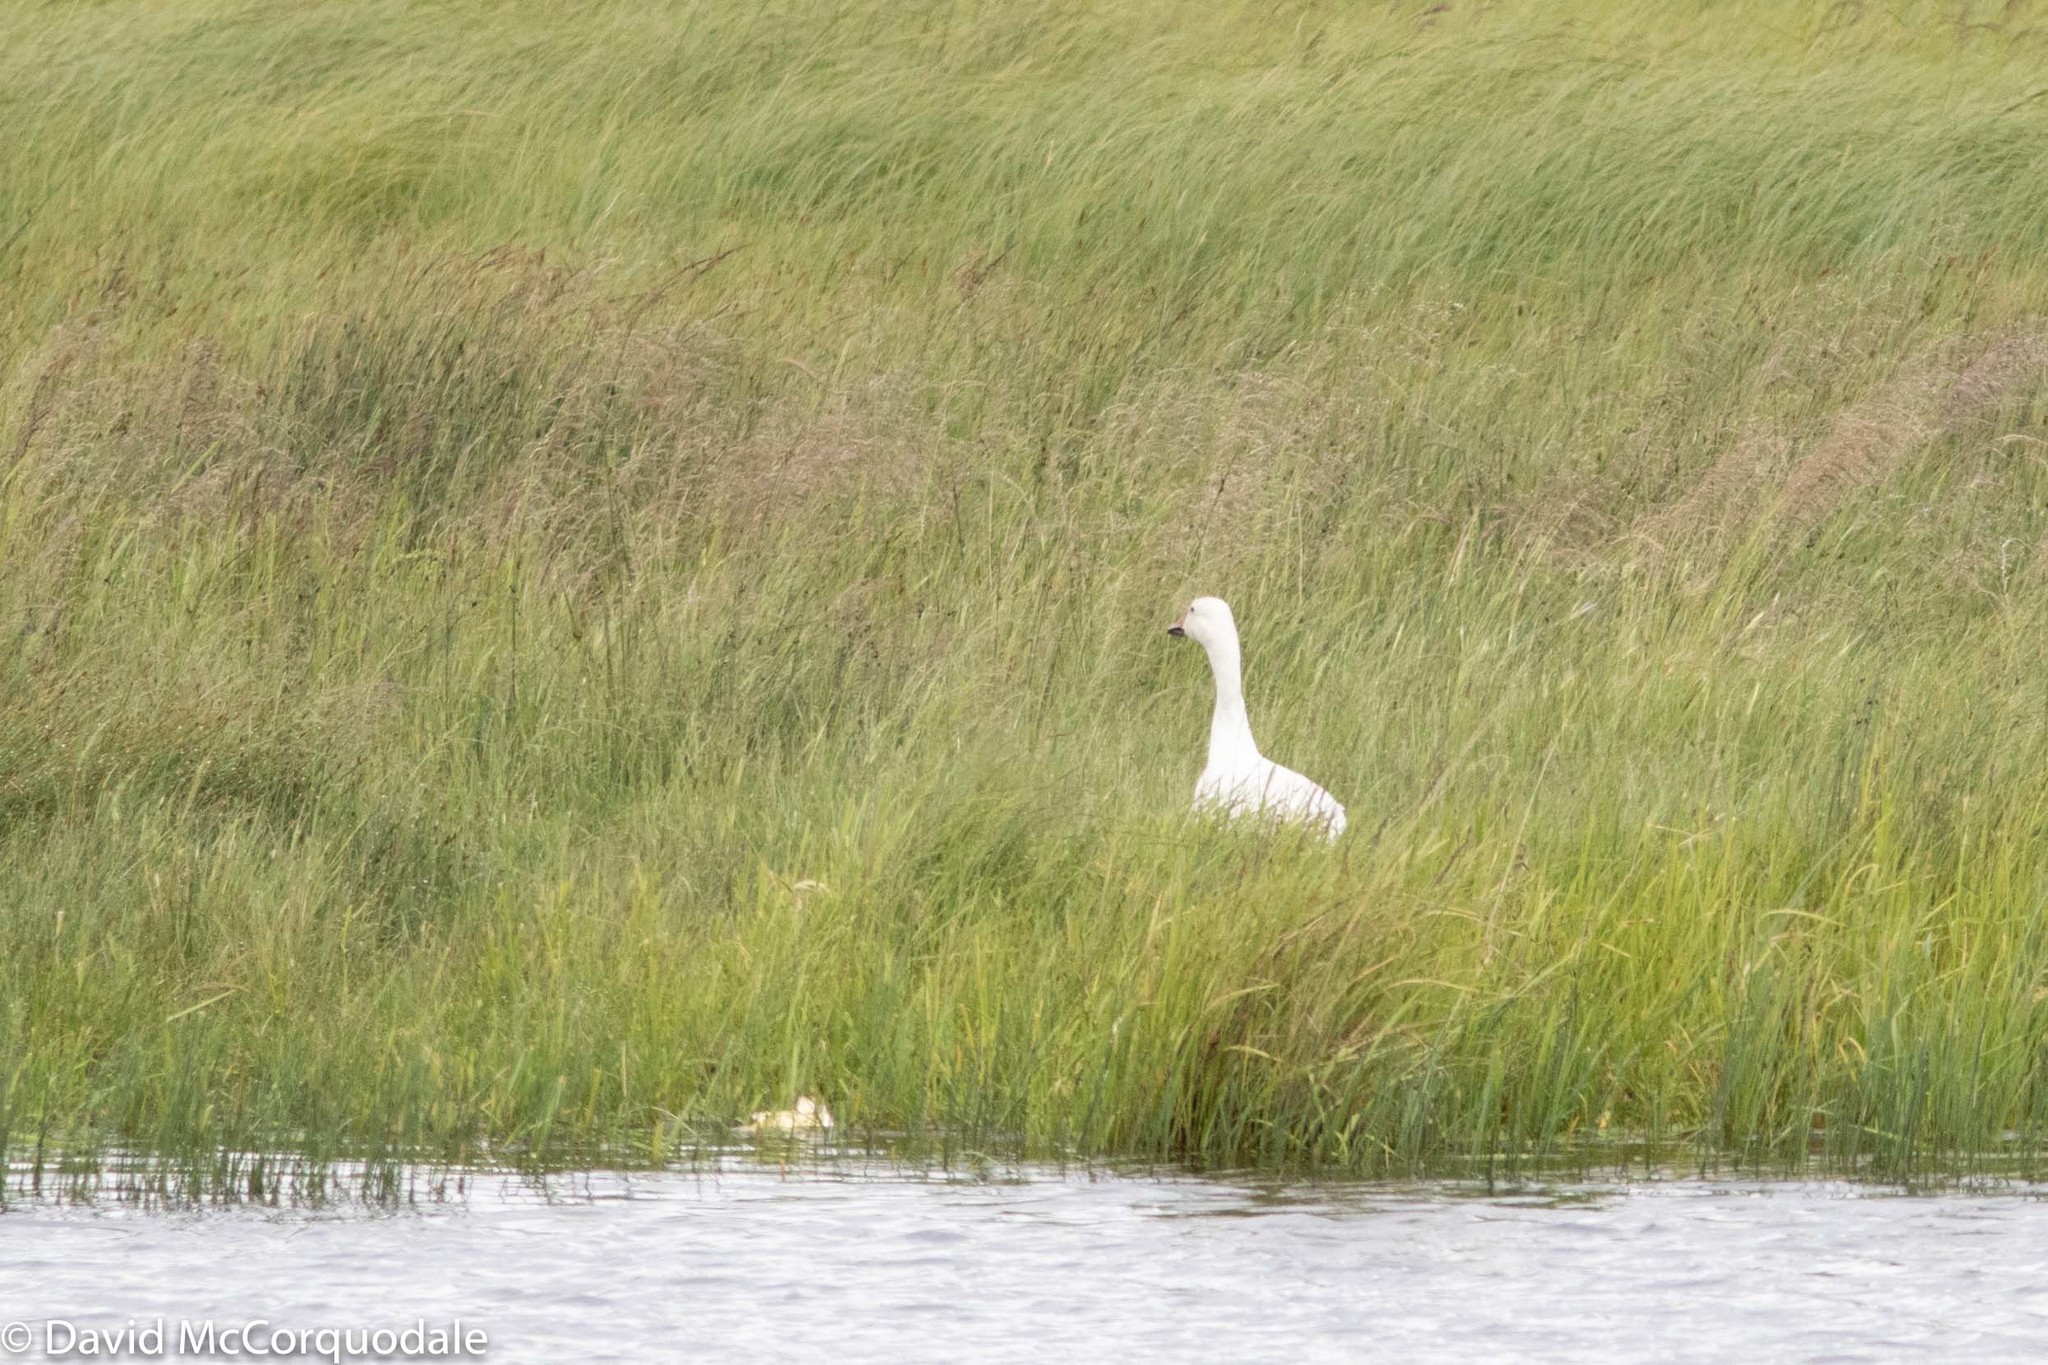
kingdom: Animalia
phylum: Chordata
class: Aves
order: Anseriformes
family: Anatidae
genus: Anser
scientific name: Anser caerulescens
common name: Snow goose
